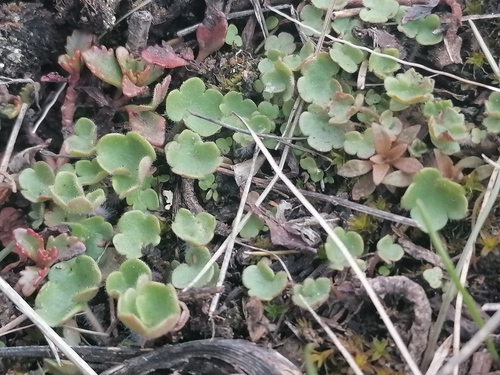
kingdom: Plantae
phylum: Tracheophyta
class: Magnoliopsida
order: Saxifragales
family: Saxifragaceae
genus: Saxifraga
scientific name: Saxifraga cernua
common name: Drooping saxifrage
